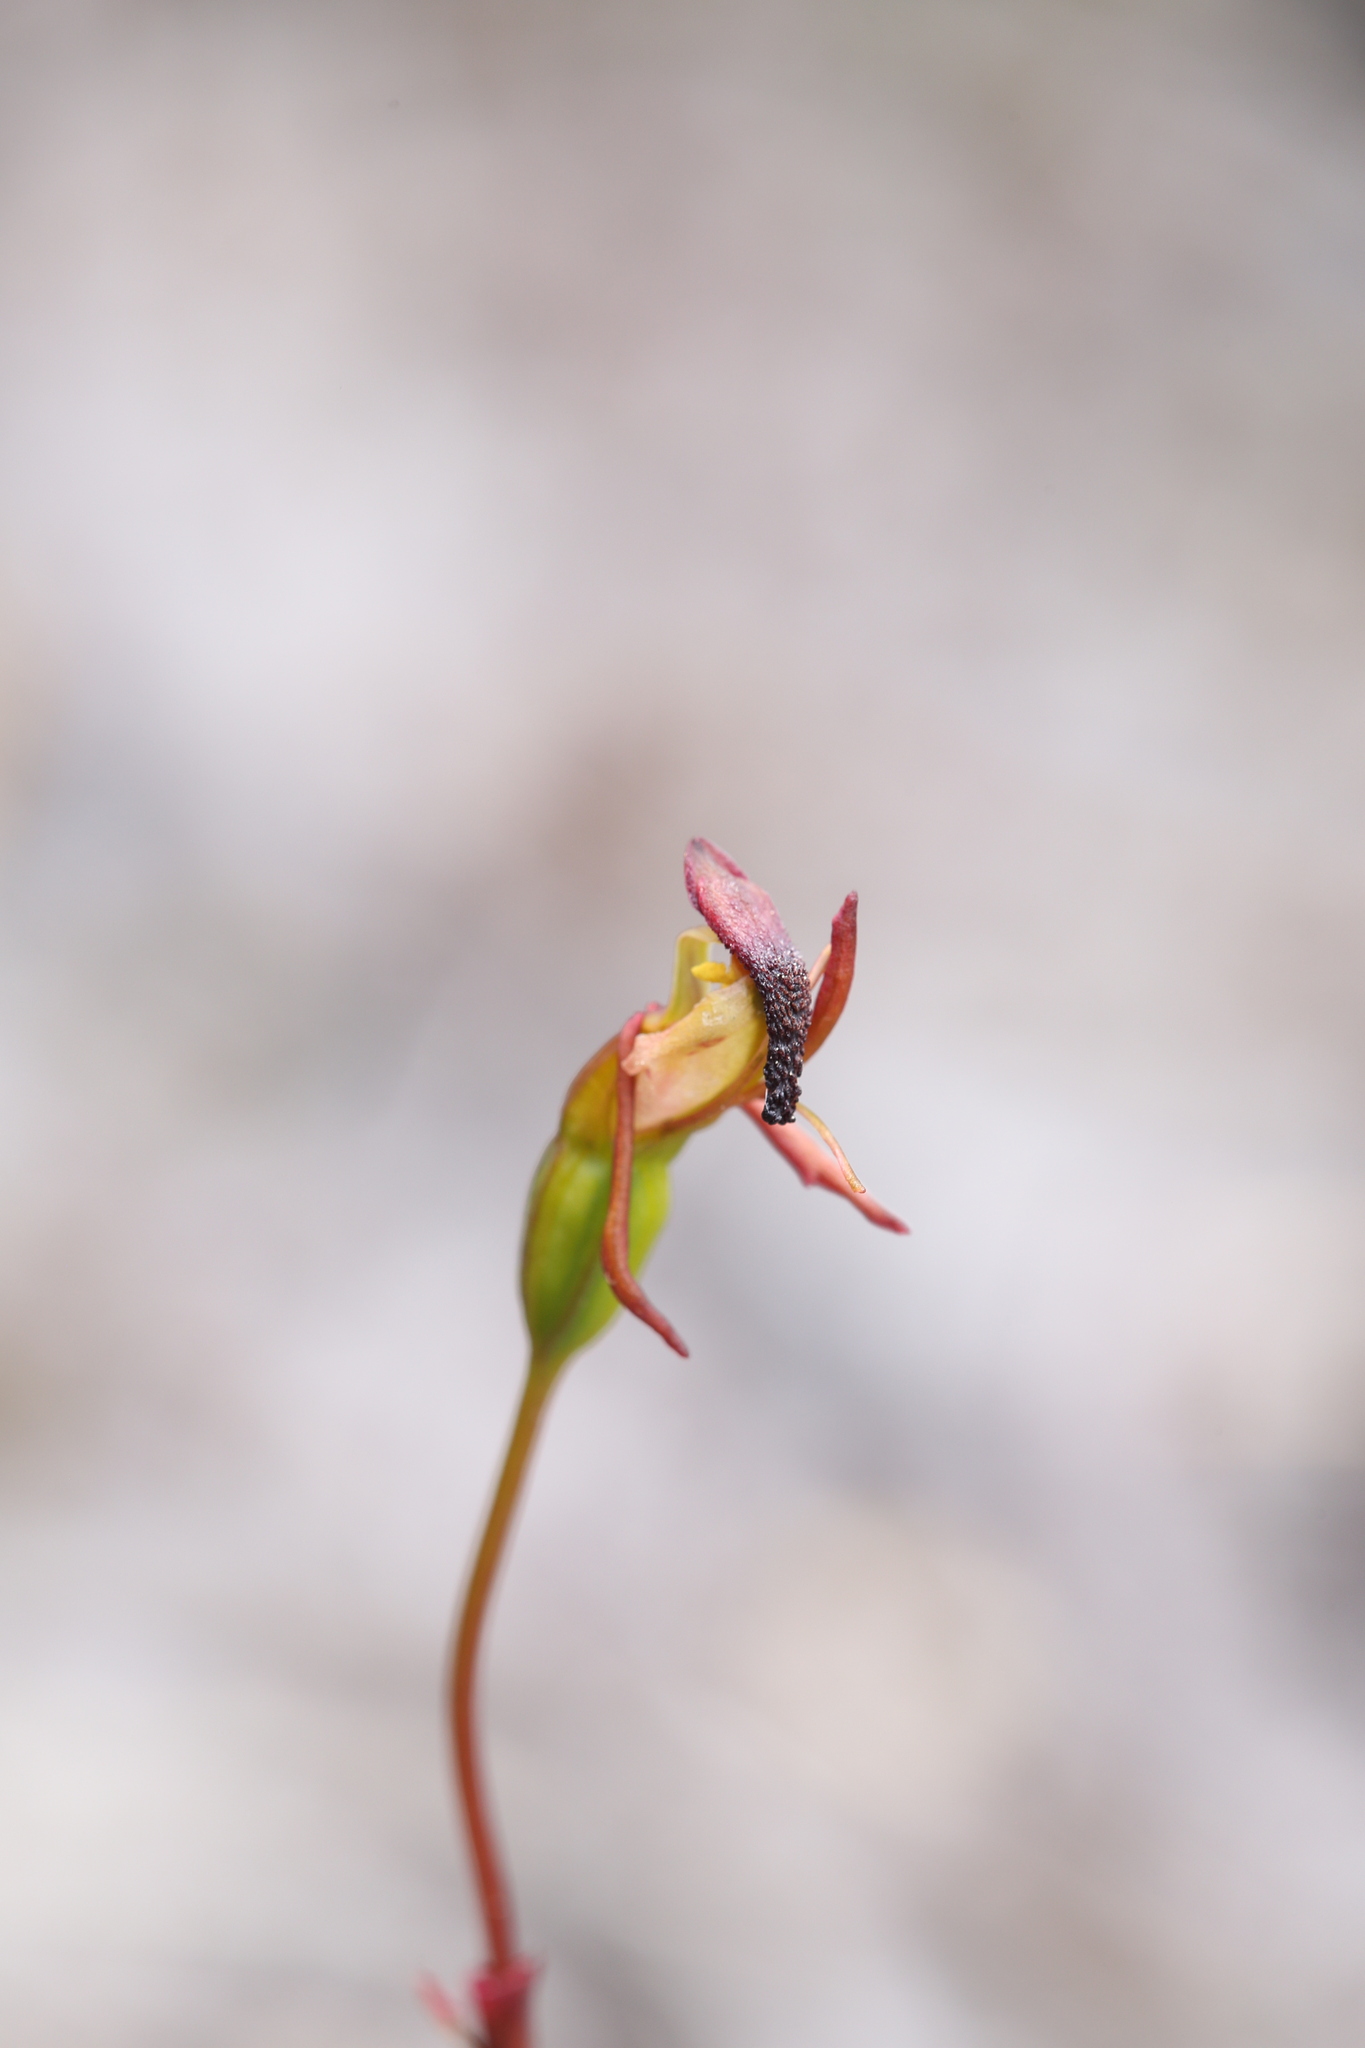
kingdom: Plantae
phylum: Tracheophyta
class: Liliopsida
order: Asparagales
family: Orchidaceae
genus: Caleana
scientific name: Caleana nigrita
